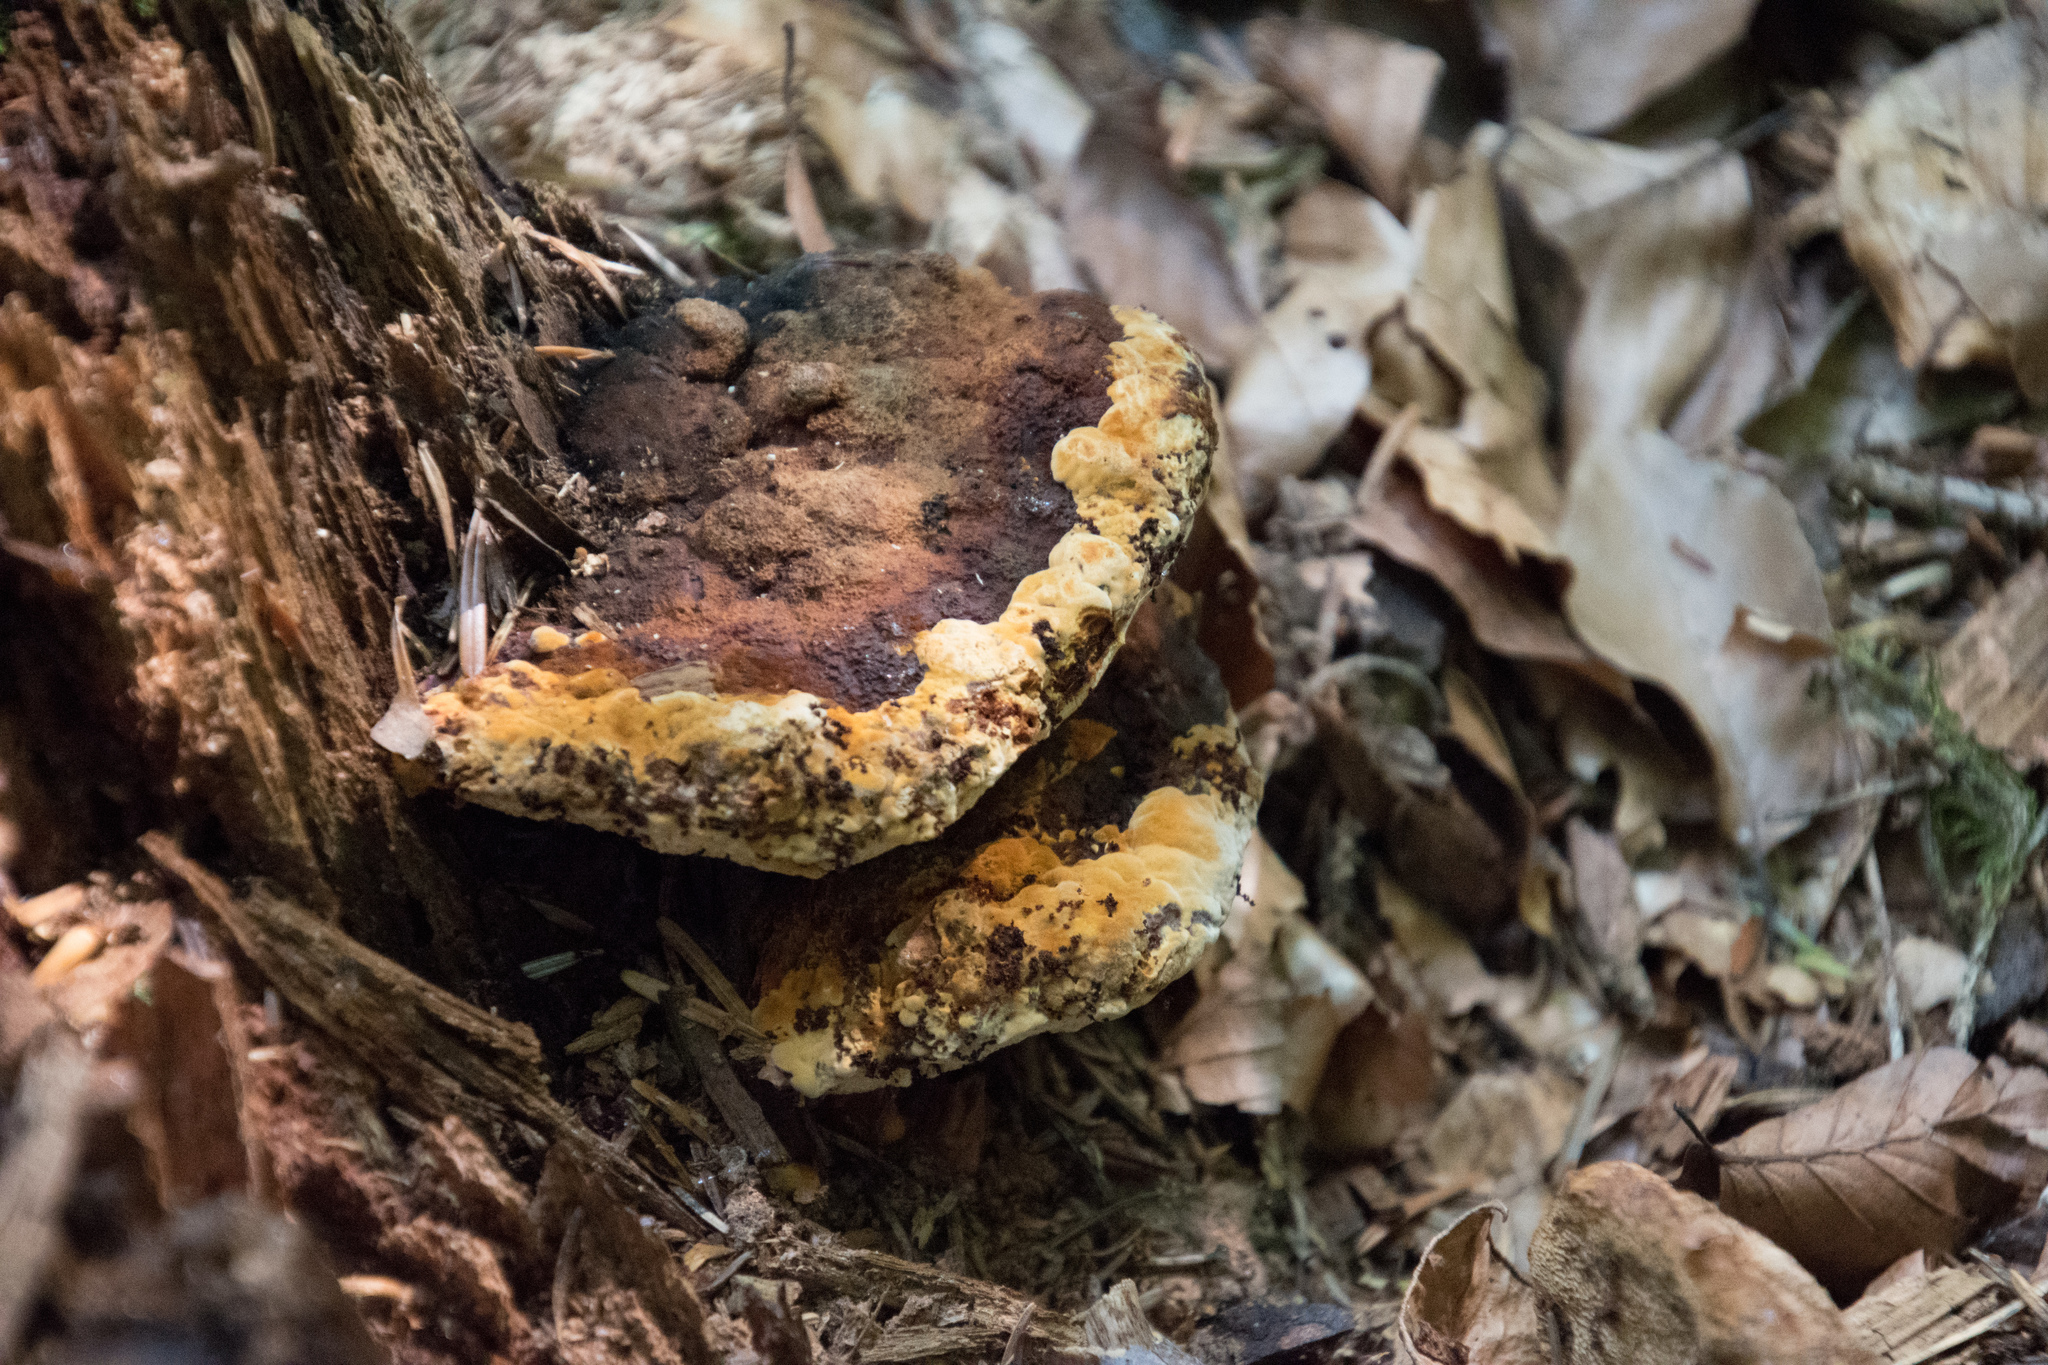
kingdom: Fungi
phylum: Basidiomycota
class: Agaricomycetes
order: Gloeophyllales
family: Gloeophyllaceae
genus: Gloeophyllum
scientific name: Gloeophyllum odoratum
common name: Anise mazegill
